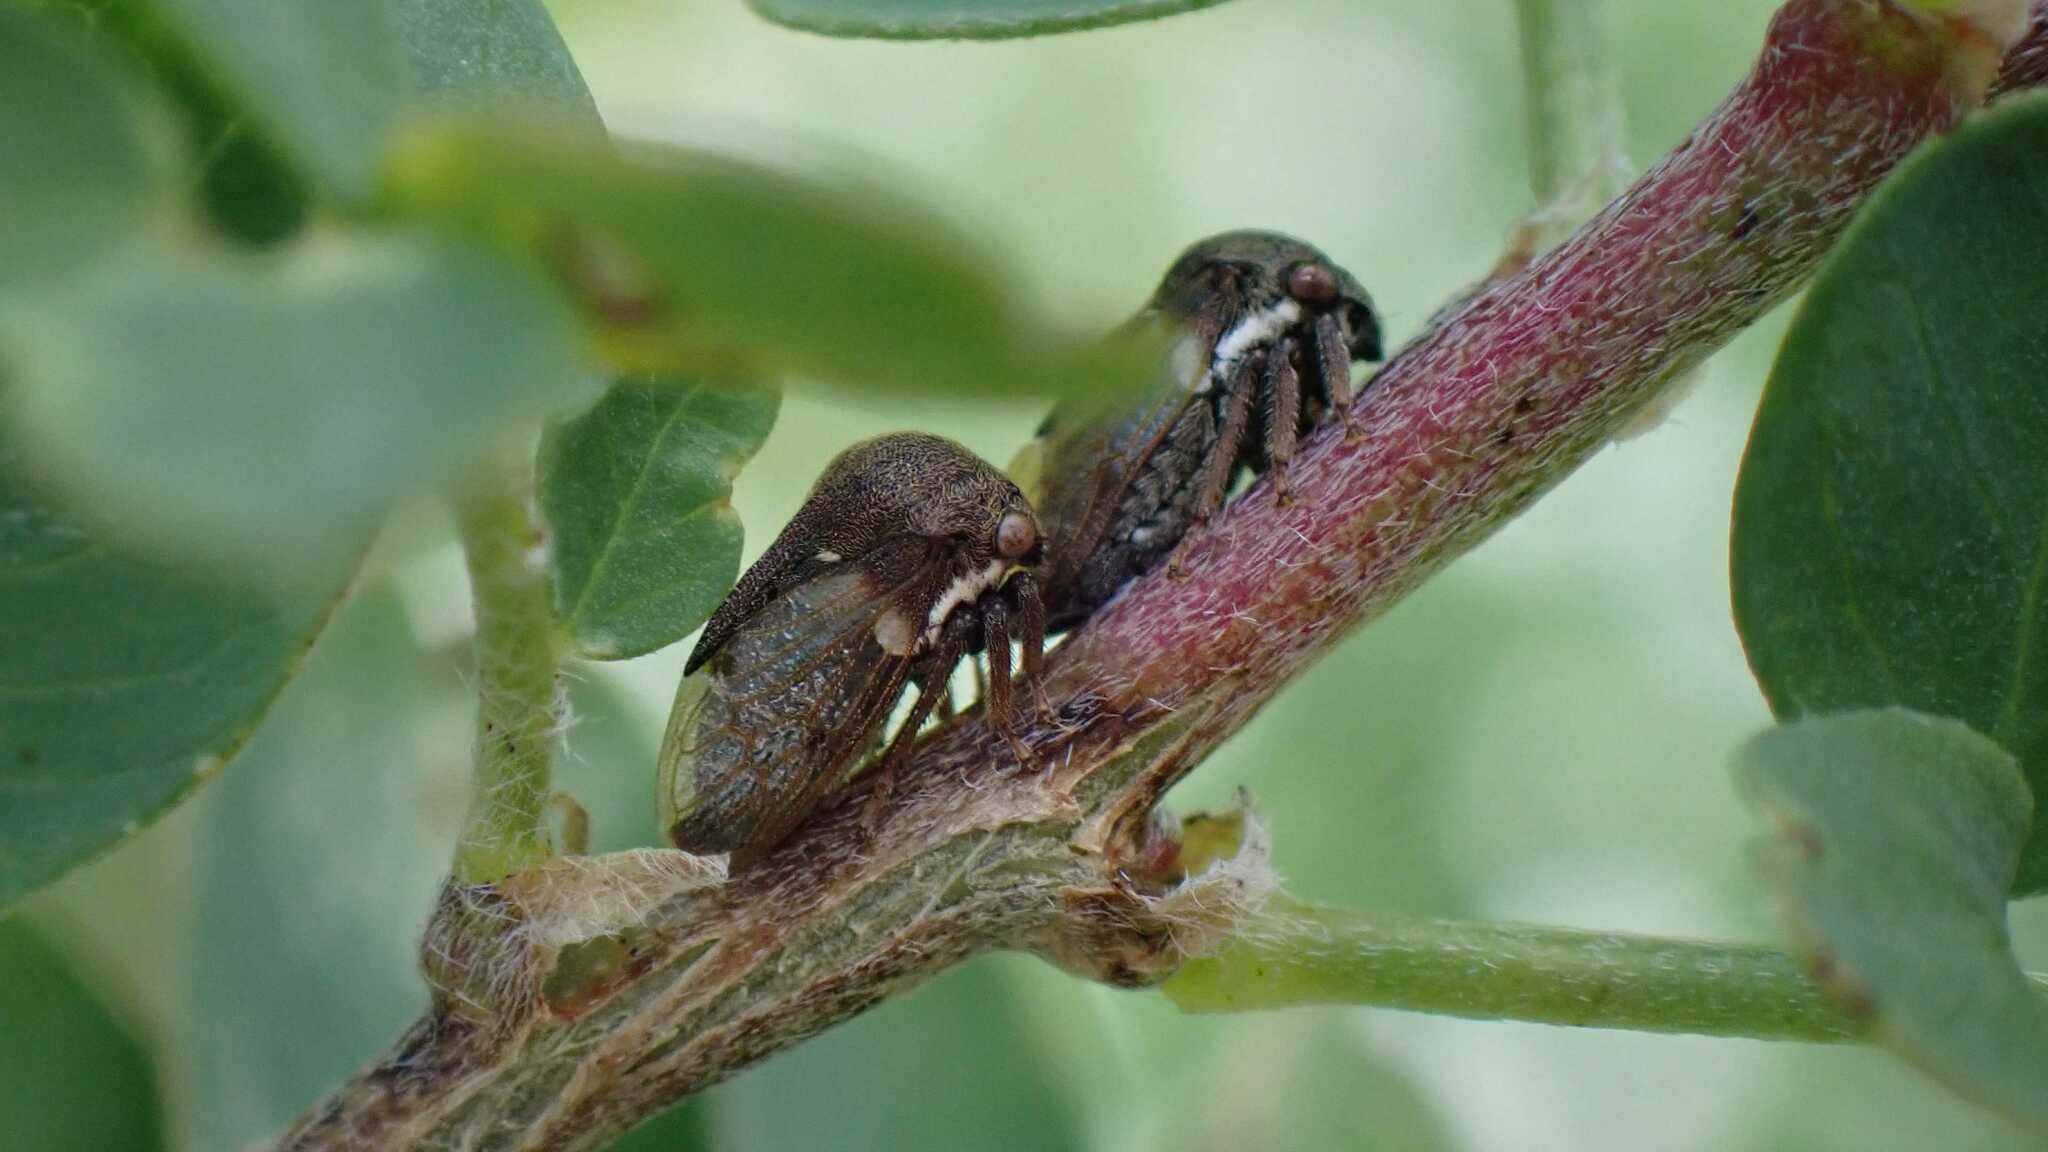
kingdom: Animalia
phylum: Arthropoda
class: Insecta
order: Hemiptera
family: Membracidae
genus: Gargara
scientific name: Gargara genistae
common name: Treehopper
